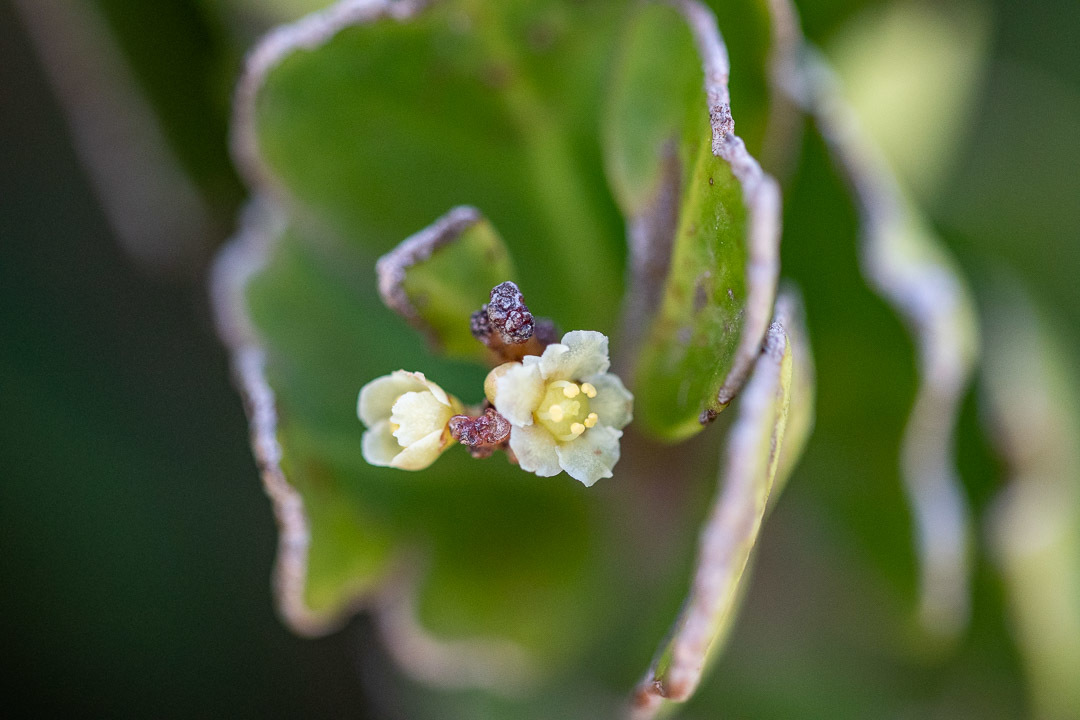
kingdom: Plantae
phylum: Tracheophyta
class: Magnoliopsida
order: Celastrales
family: Celastraceae
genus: Gymnosporia
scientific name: Gymnosporia laurina
